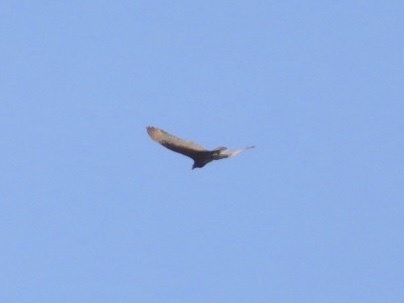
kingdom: Animalia
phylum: Chordata
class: Aves
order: Accipitriformes
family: Cathartidae
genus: Cathartes
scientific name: Cathartes aura
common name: Turkey vulture
